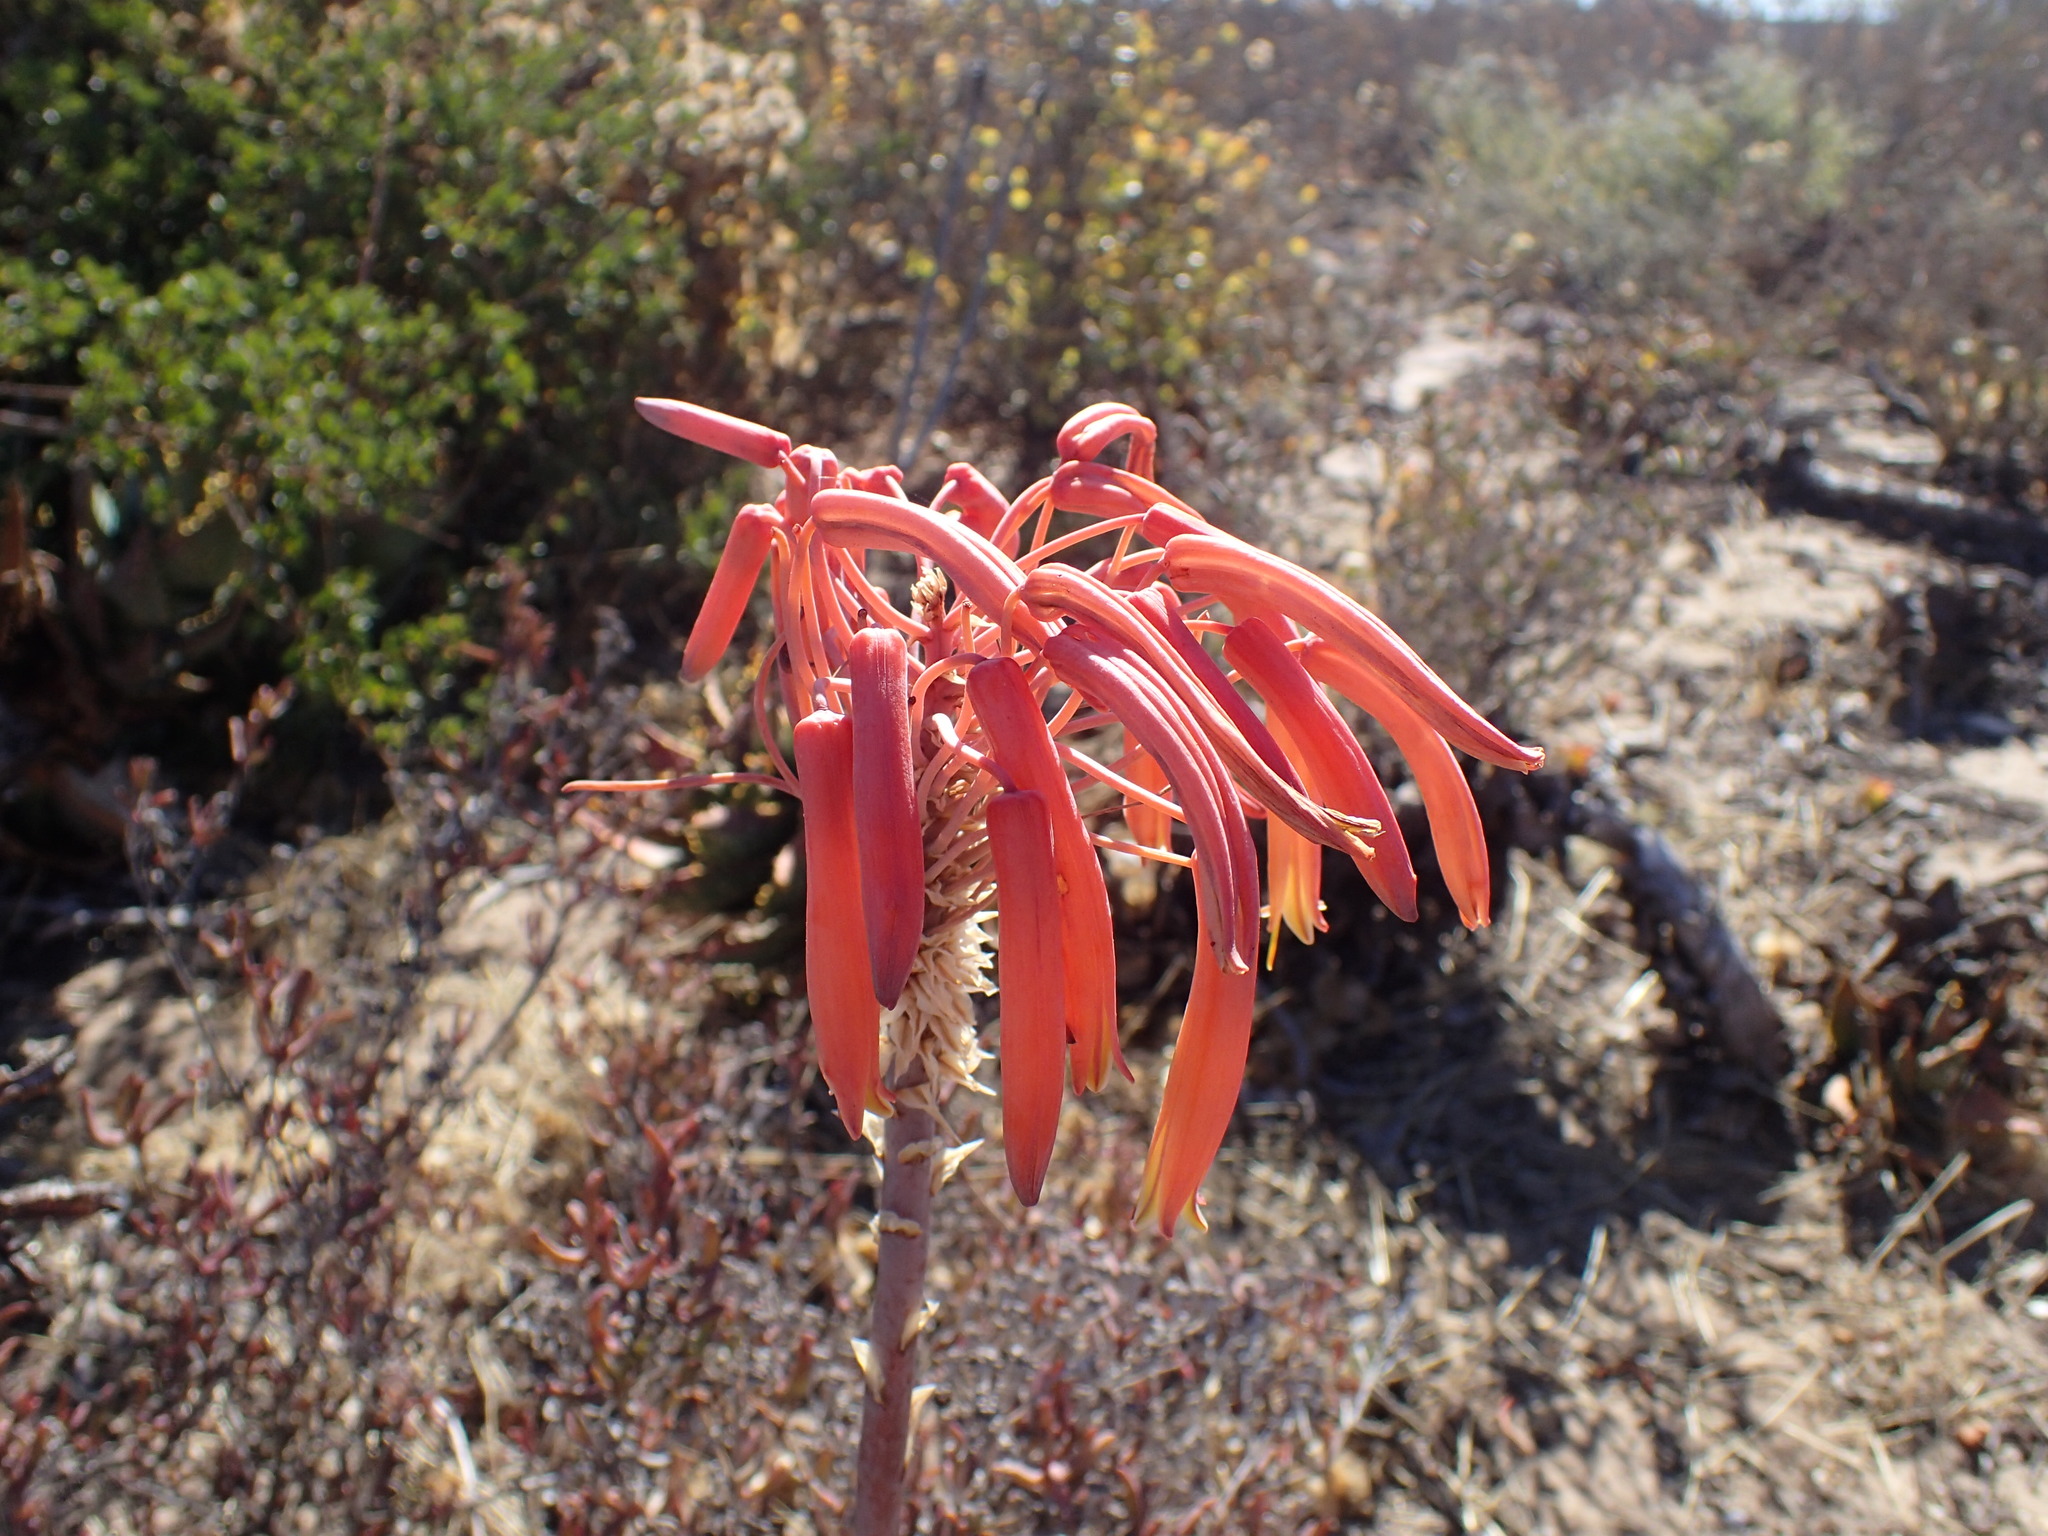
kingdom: Plantae
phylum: Tracheophyta
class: Liliopsida
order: Asparagales
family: Asphodelaceae
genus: Aloe
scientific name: Aloe distans
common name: Short-leaved aloe
